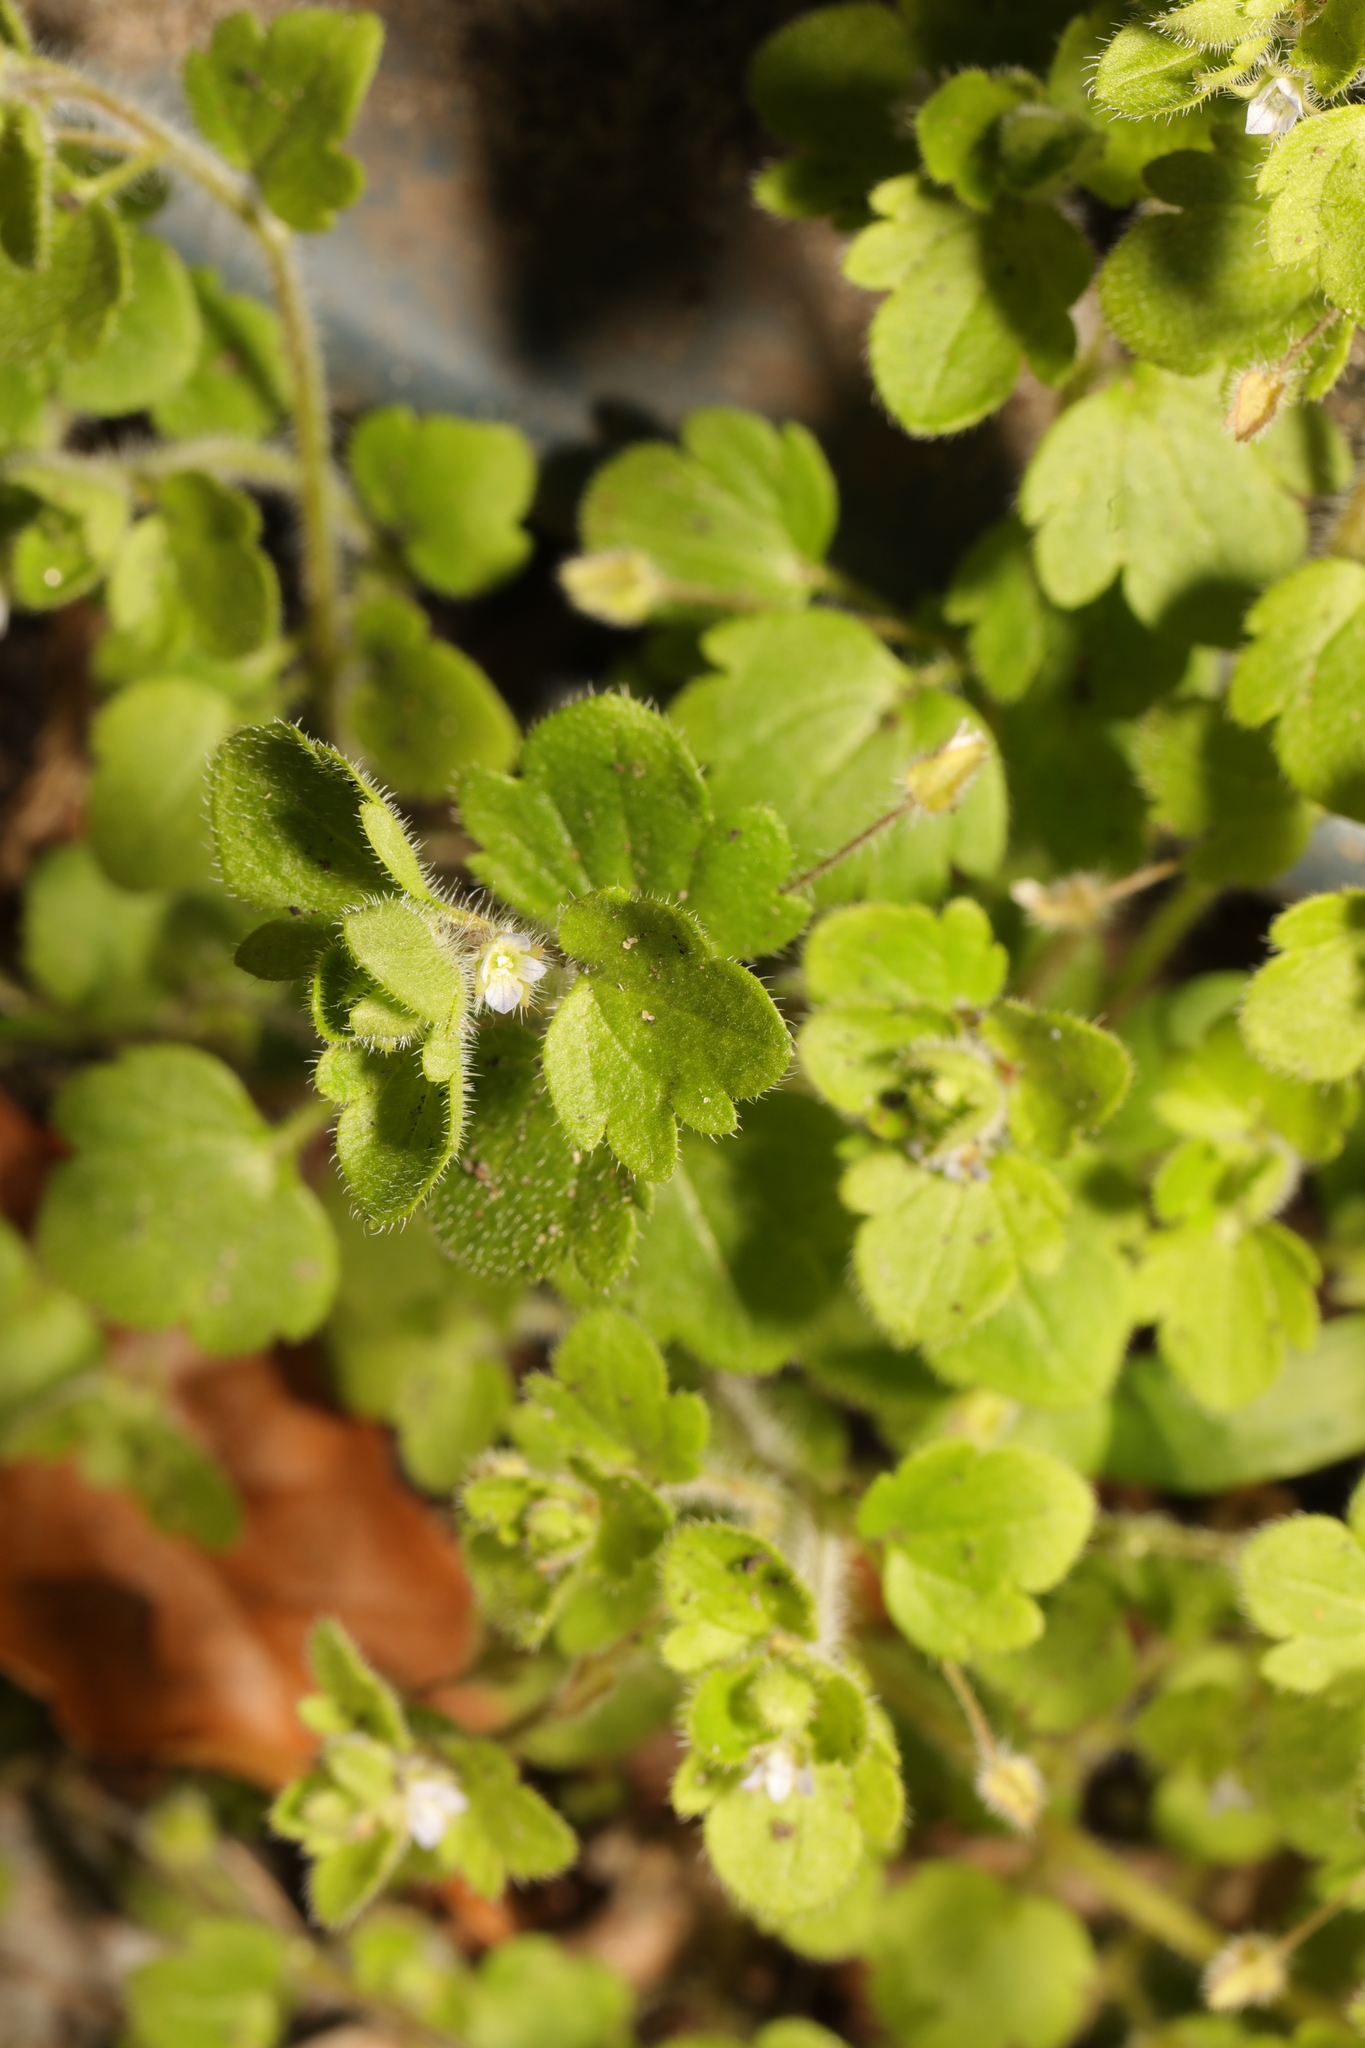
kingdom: Plantae
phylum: Tracheophyta
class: Magnoliopsida
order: Lamiales
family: Plantaginaceae
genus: Veronica
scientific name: Veronica sublobata
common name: False ivy-leaved speedwell
